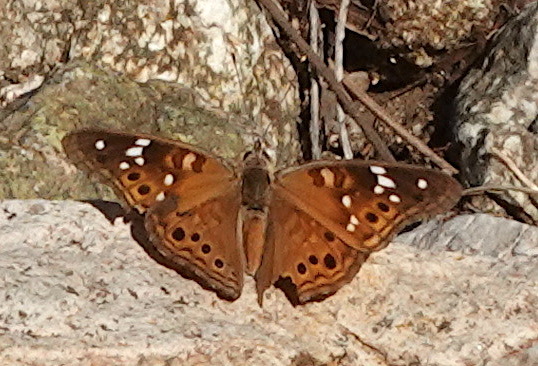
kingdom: Animalia
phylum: Arthropoda
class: Insecta
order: Lepidoptera
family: Nymphalidae
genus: Asterocampa
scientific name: Asterocampa leilia
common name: Empress leilia
